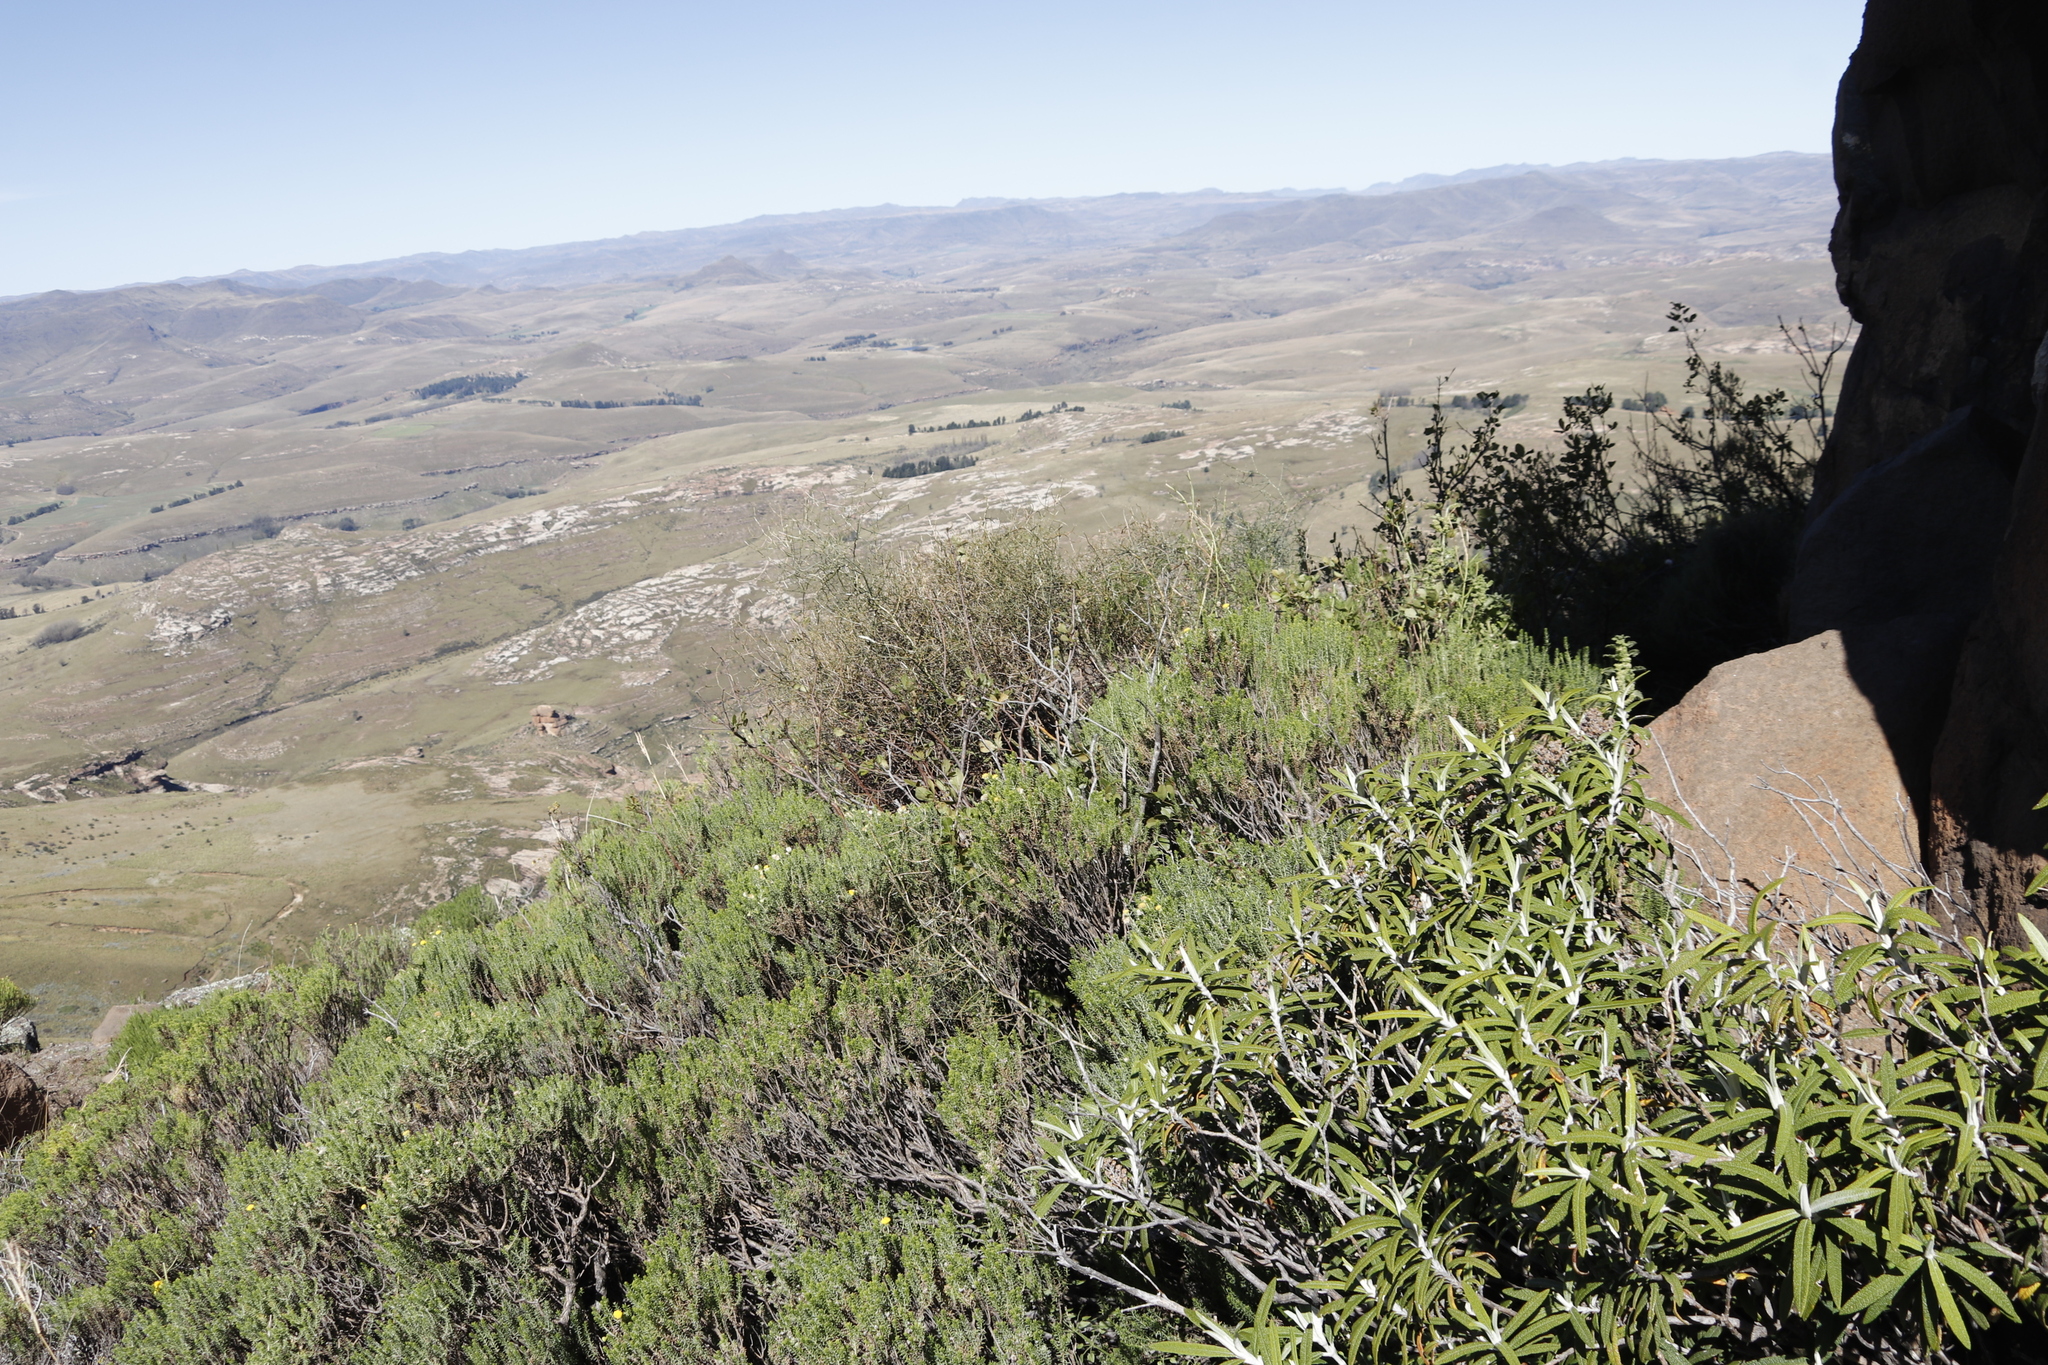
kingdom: Plantae
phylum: Tracheophyta
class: Magnoliopsida
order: Lamiales
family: Scrophulariaceae
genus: Buddleja
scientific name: Buddleja loricata
